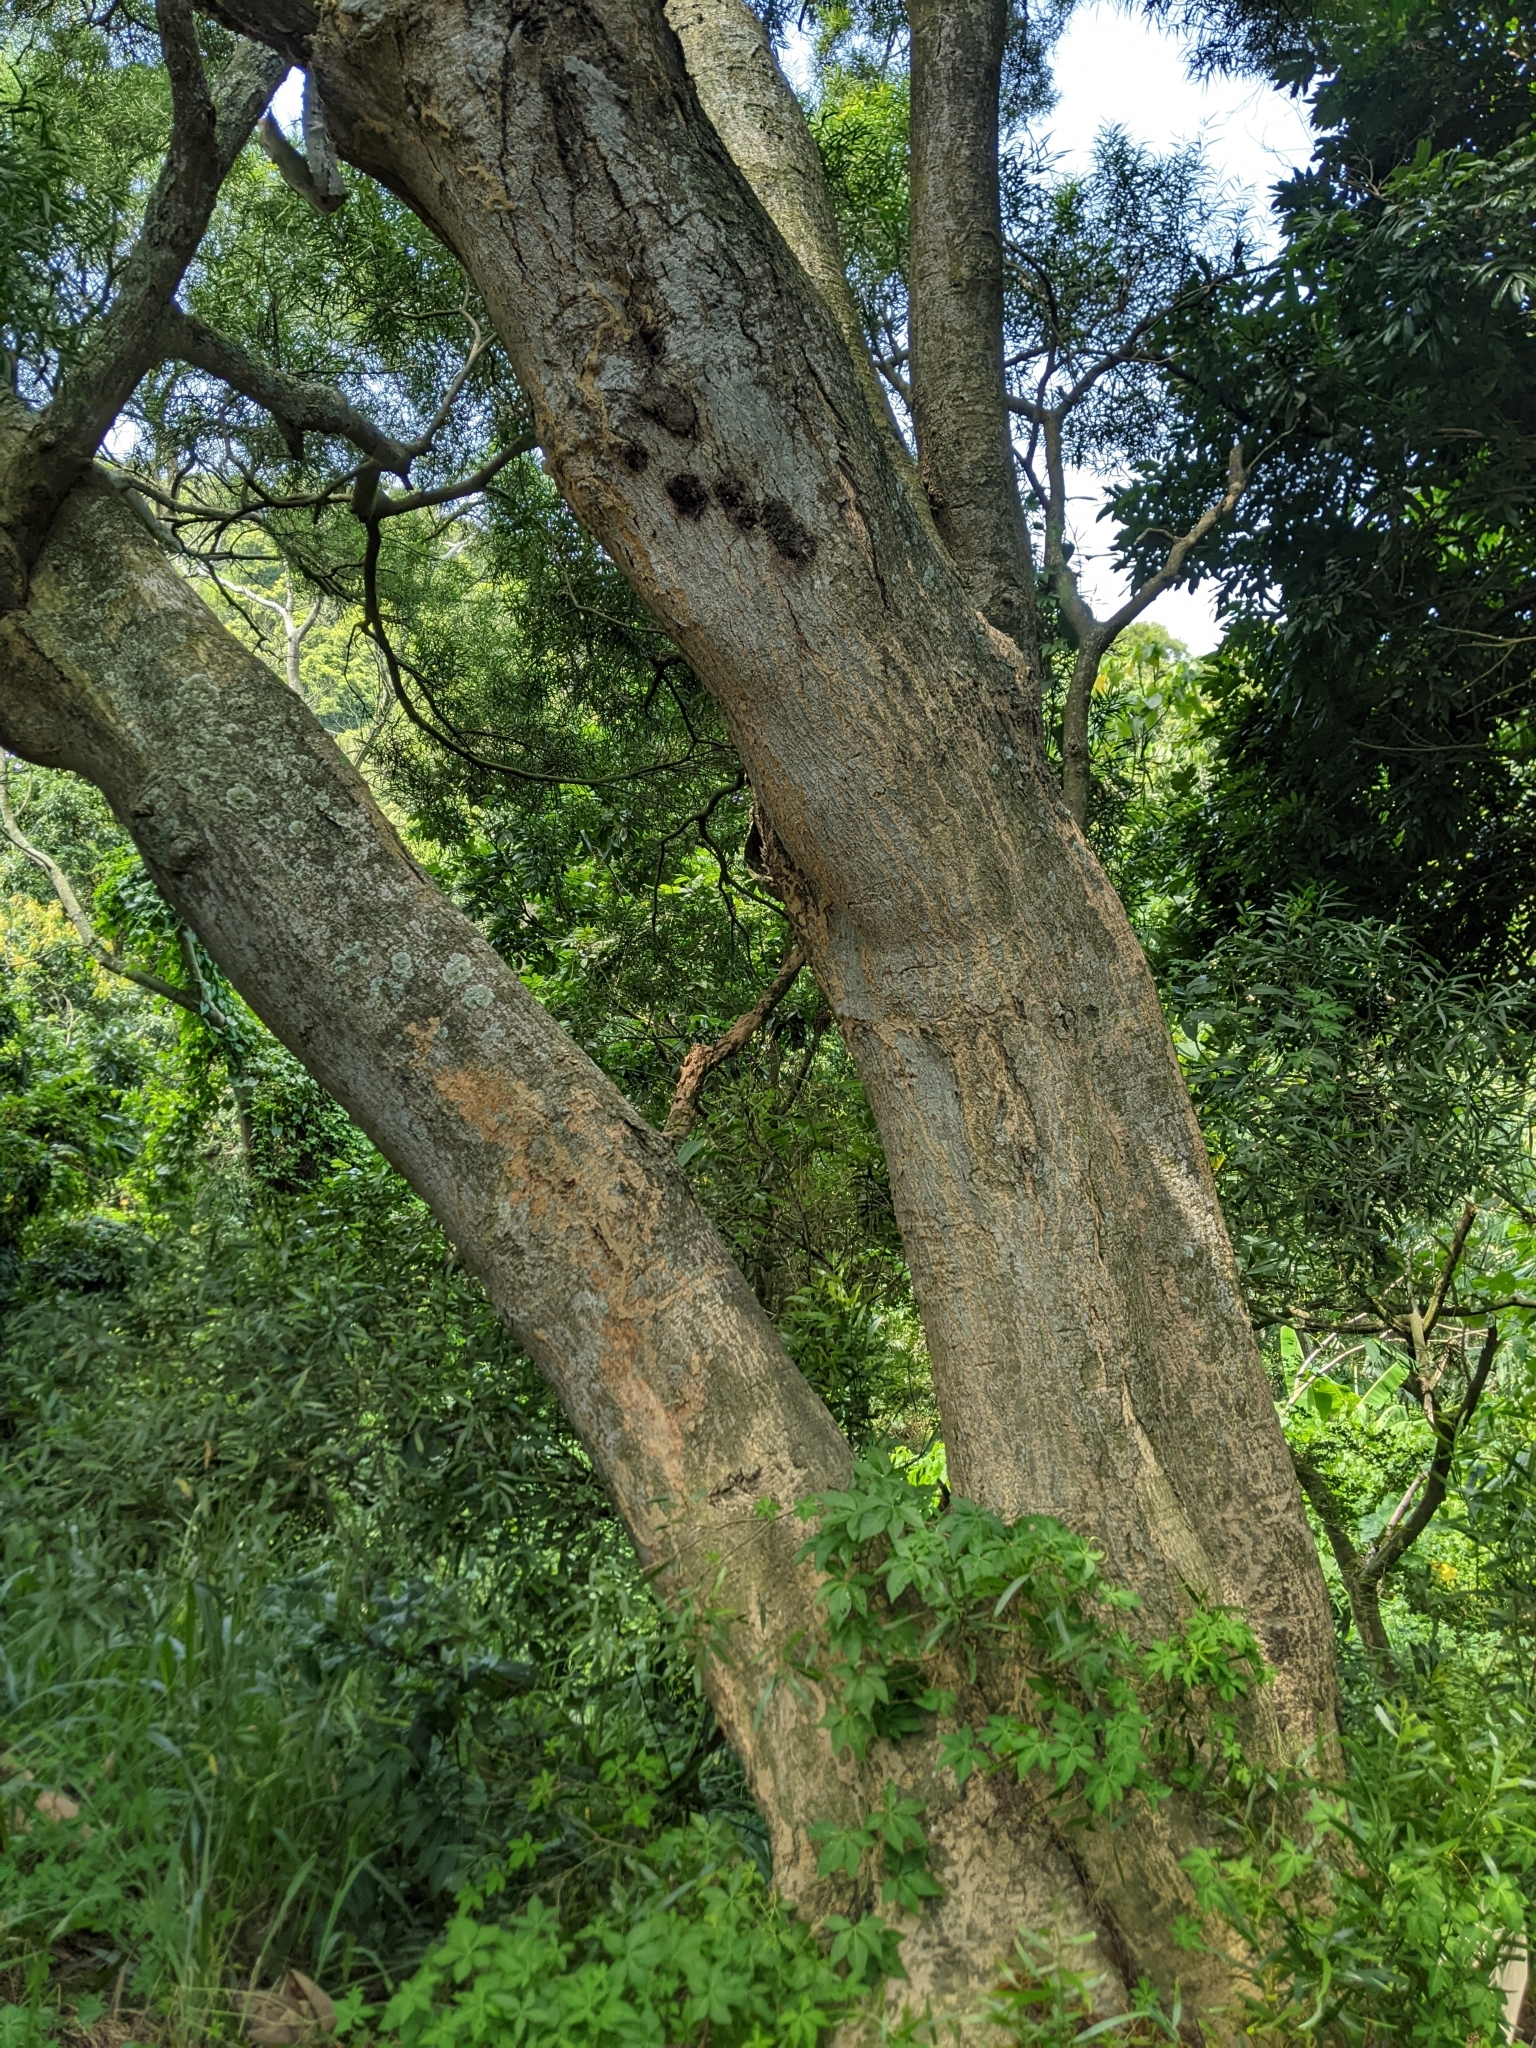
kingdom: Plantae
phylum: Tracheophyta
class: Magnoliopsida
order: Fabales
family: Fabaceae
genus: Acacia
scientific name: Acacia confusa
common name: Formosan koa
